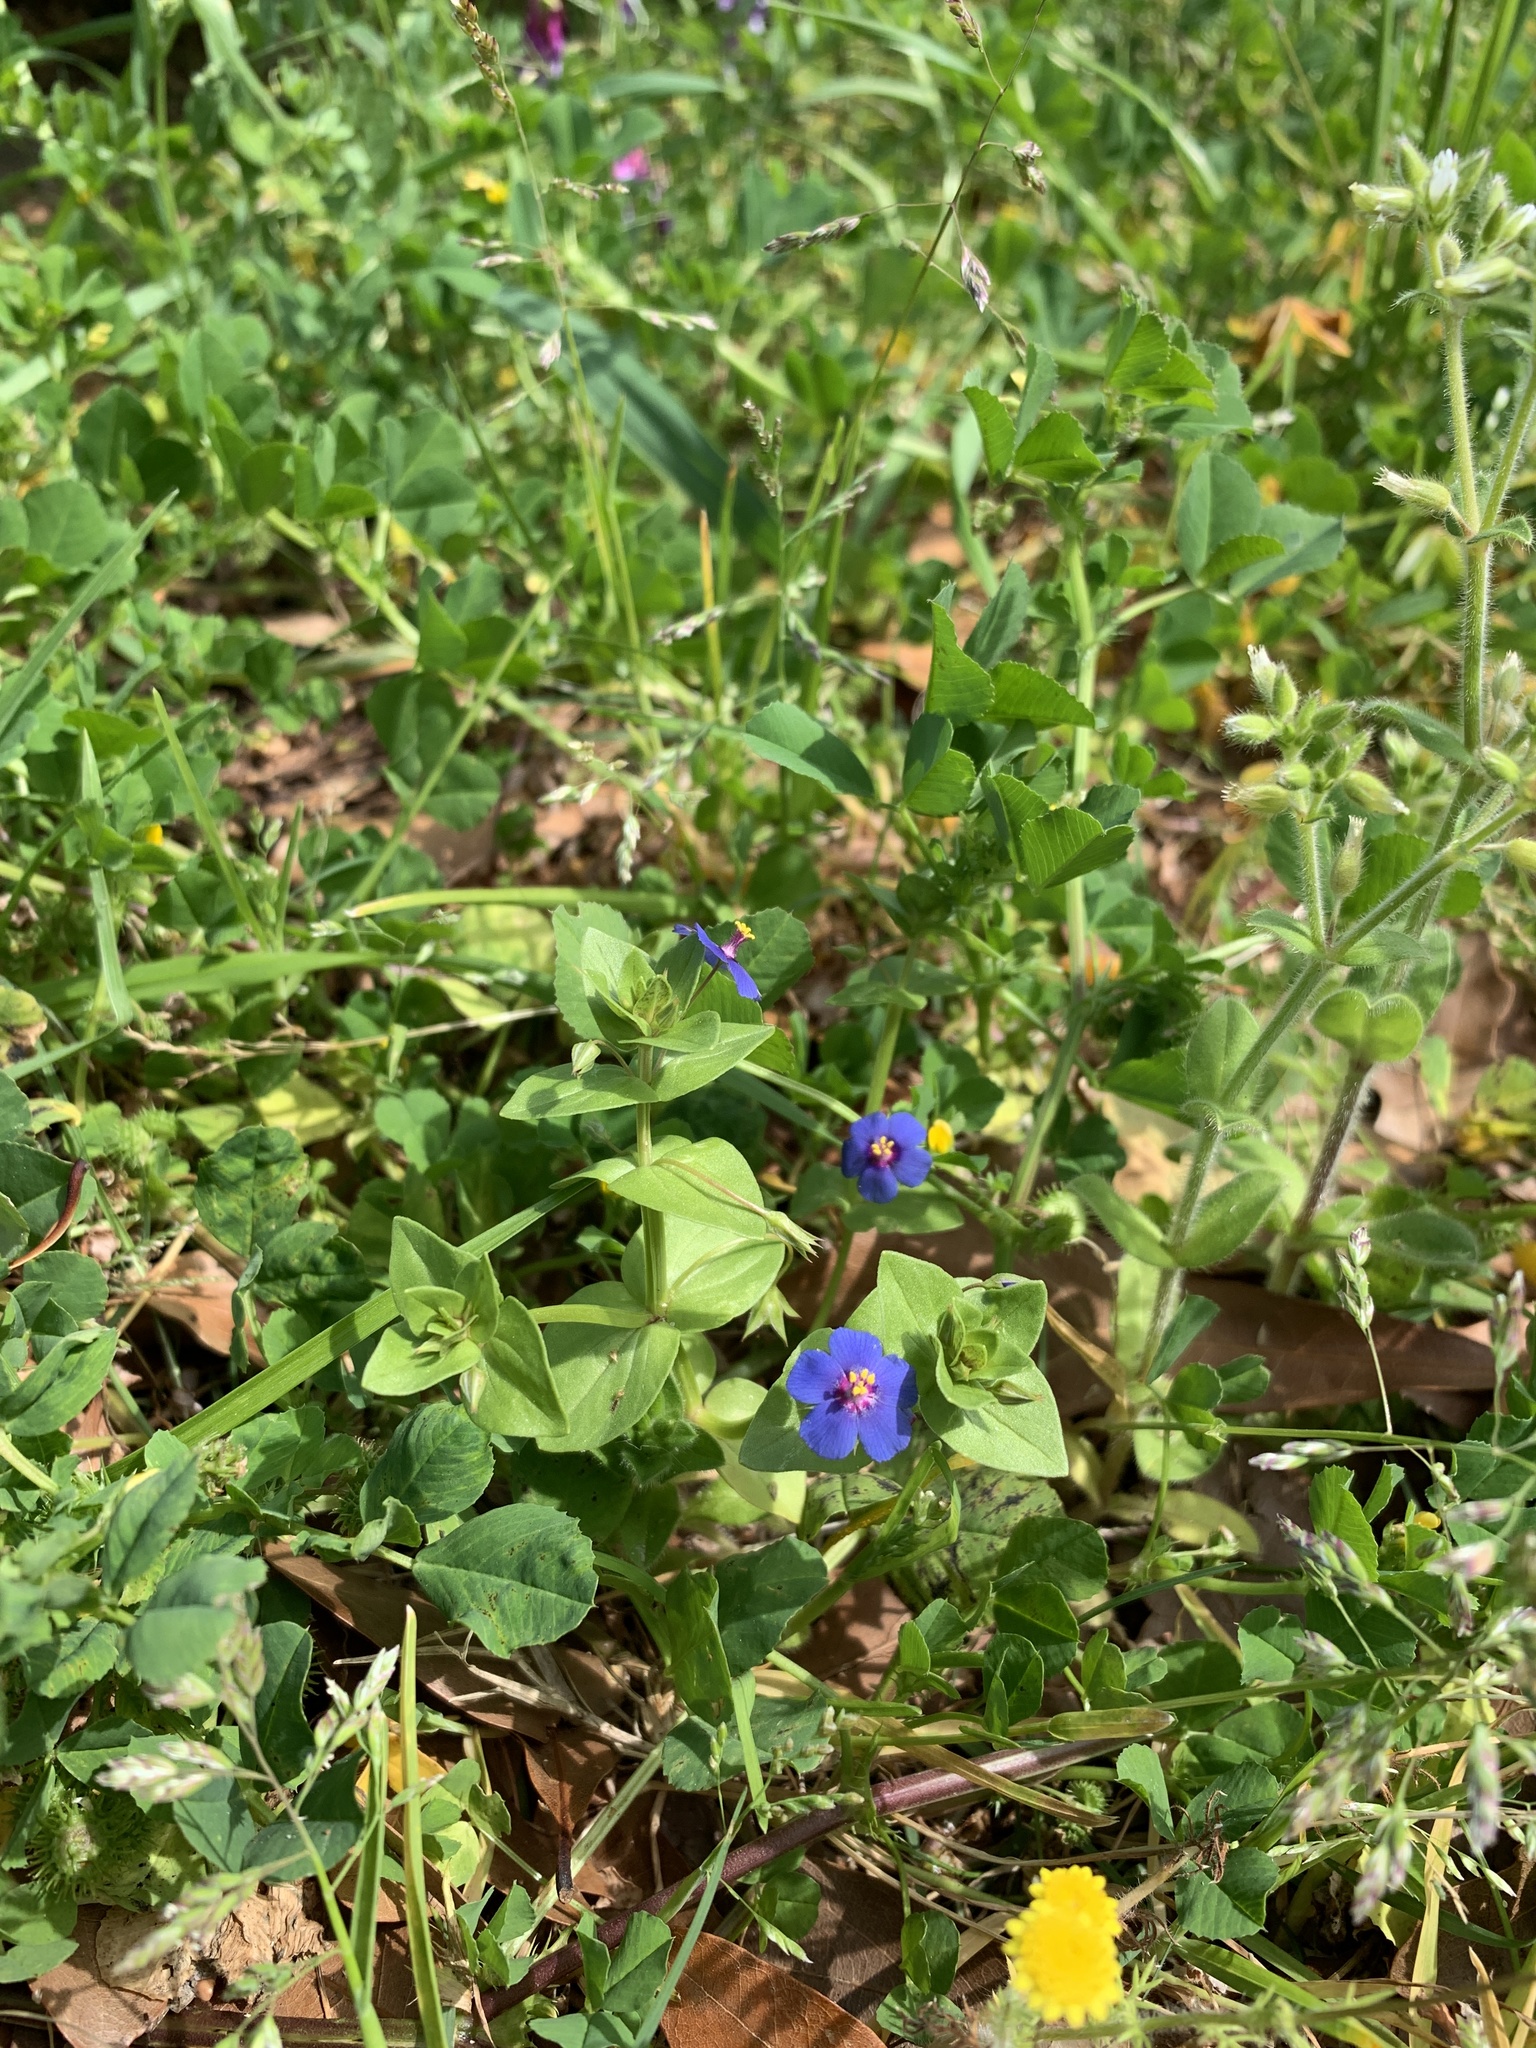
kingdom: Plantae
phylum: Tracheophyta
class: Magnoliopsida
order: Ericales
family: Primulaceae
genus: Lysimachia
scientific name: Lysimachia loeflingii
